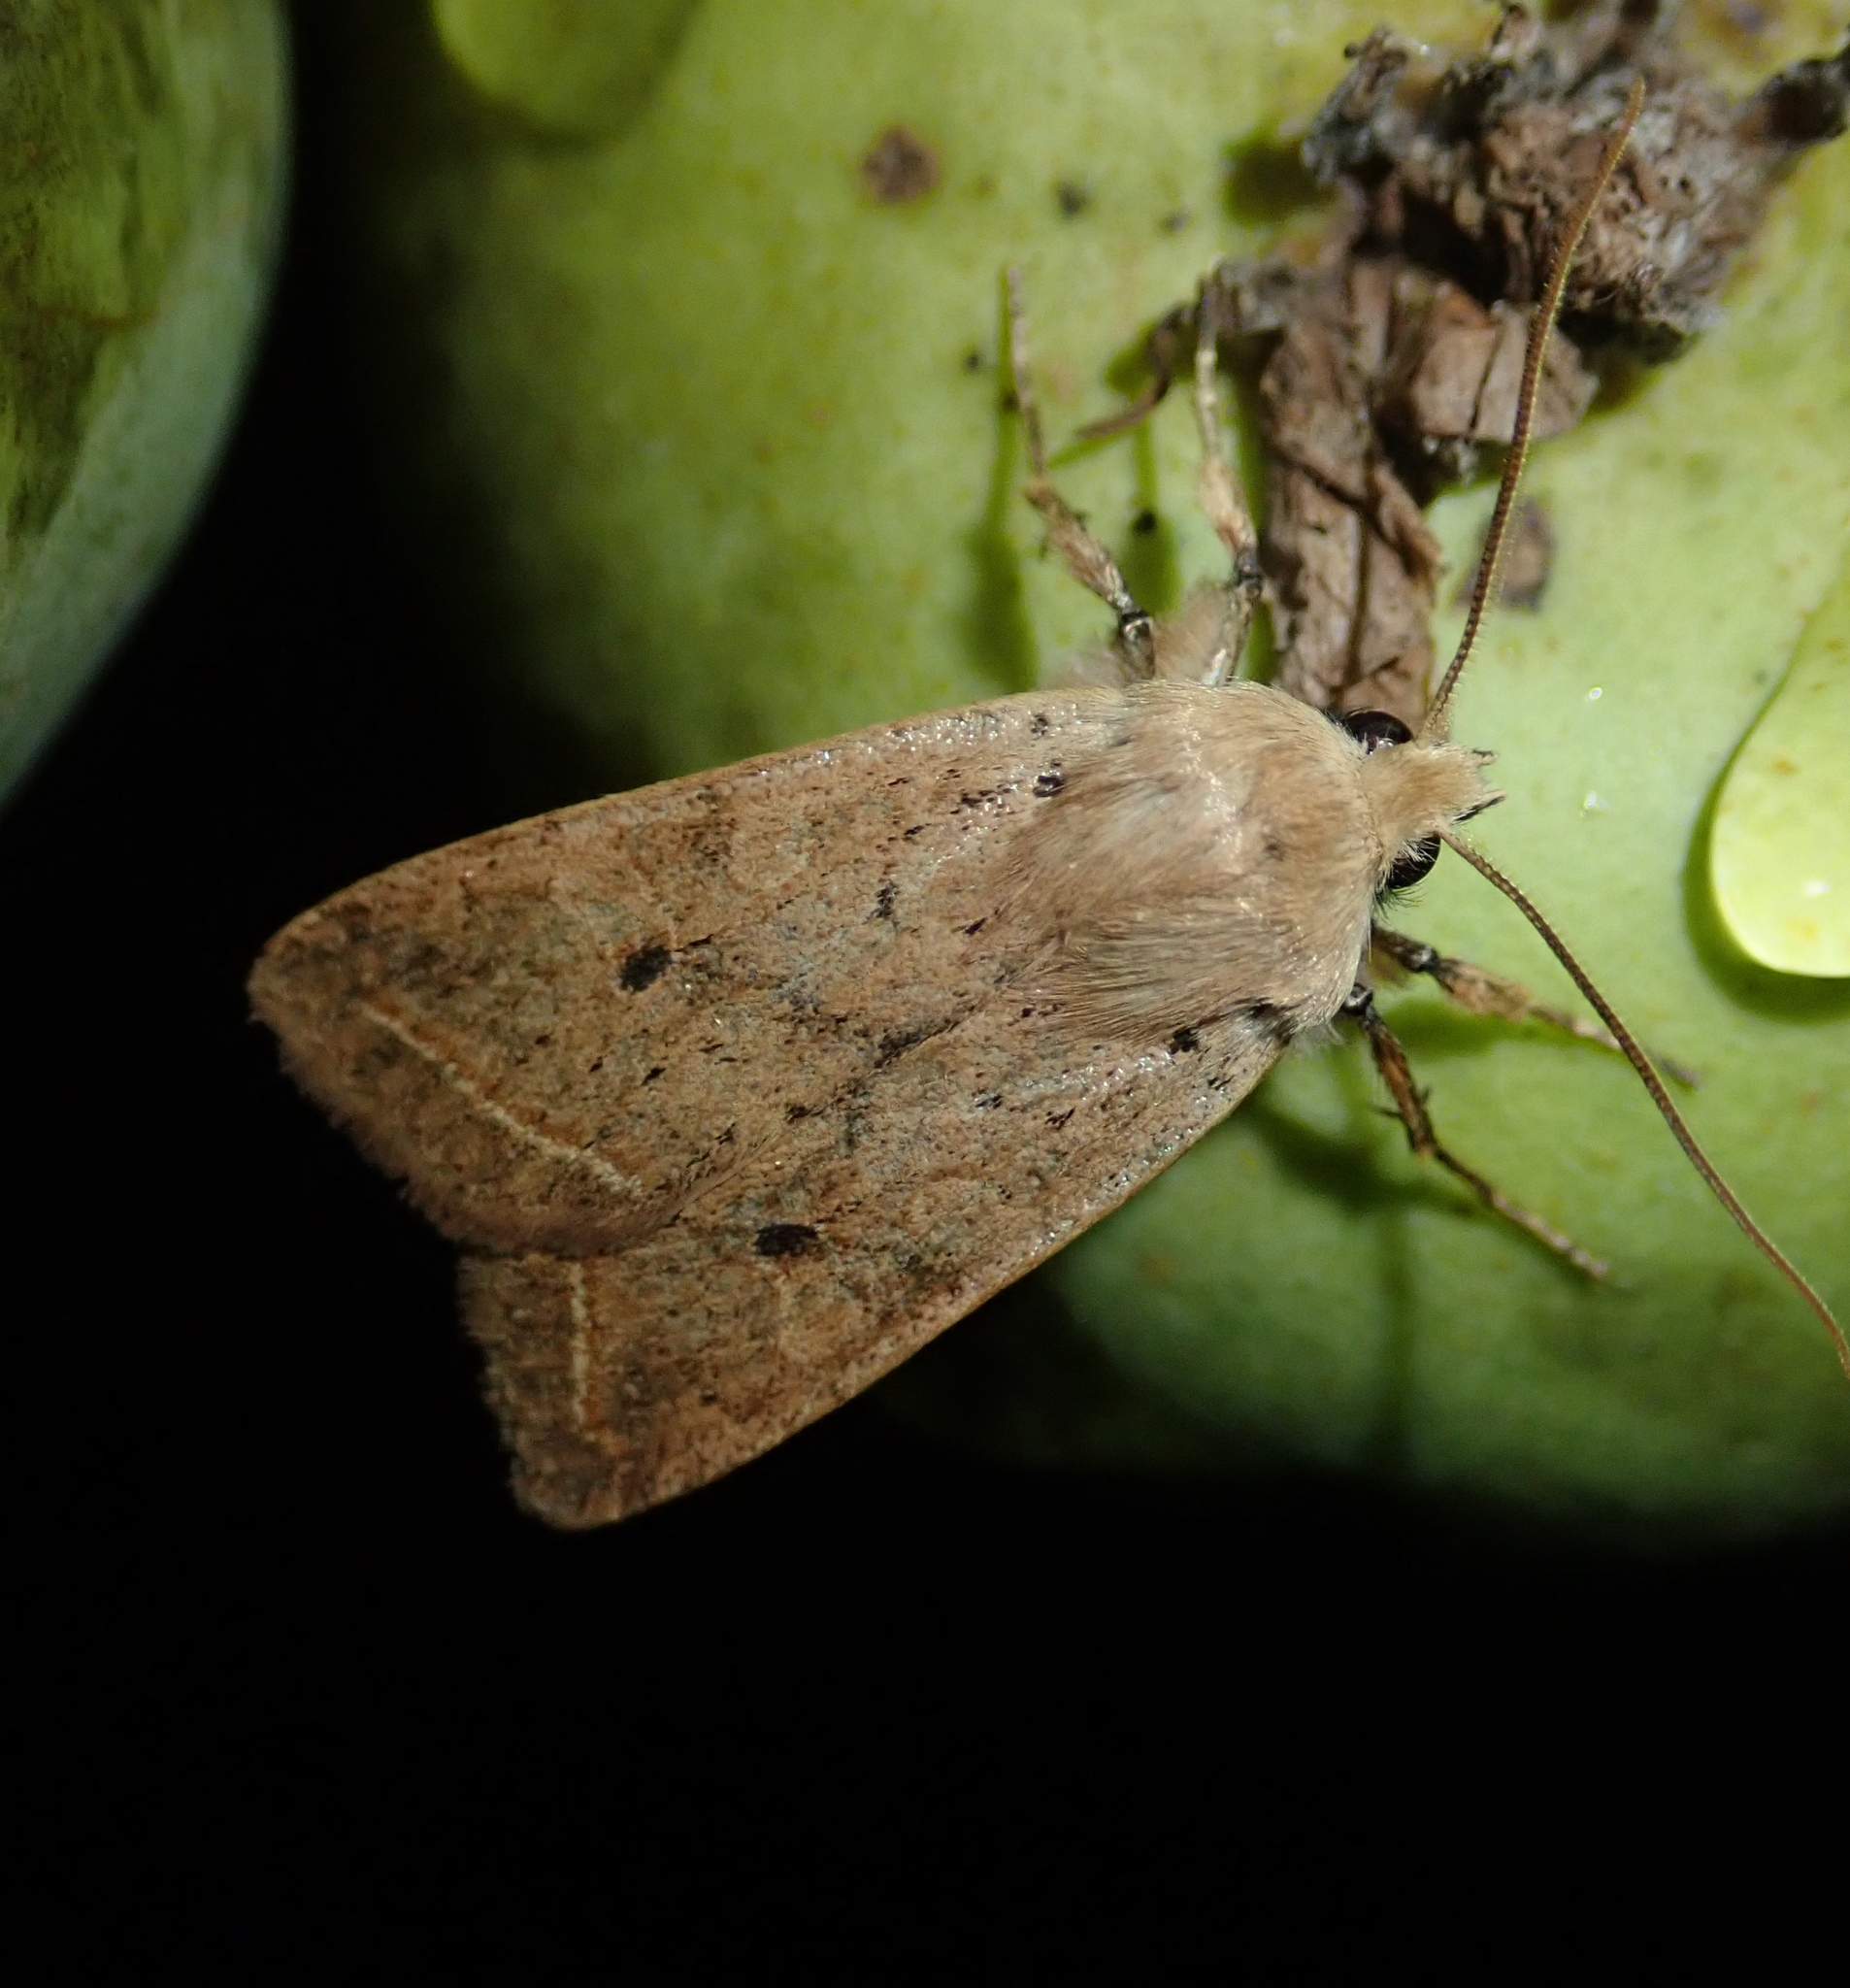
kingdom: Animalia
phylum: Arthropoda
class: Insecta
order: Lepidoptera
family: Noctuidae
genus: Agrochola
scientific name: Agrochola macilenta
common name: Yellow-line quaker
